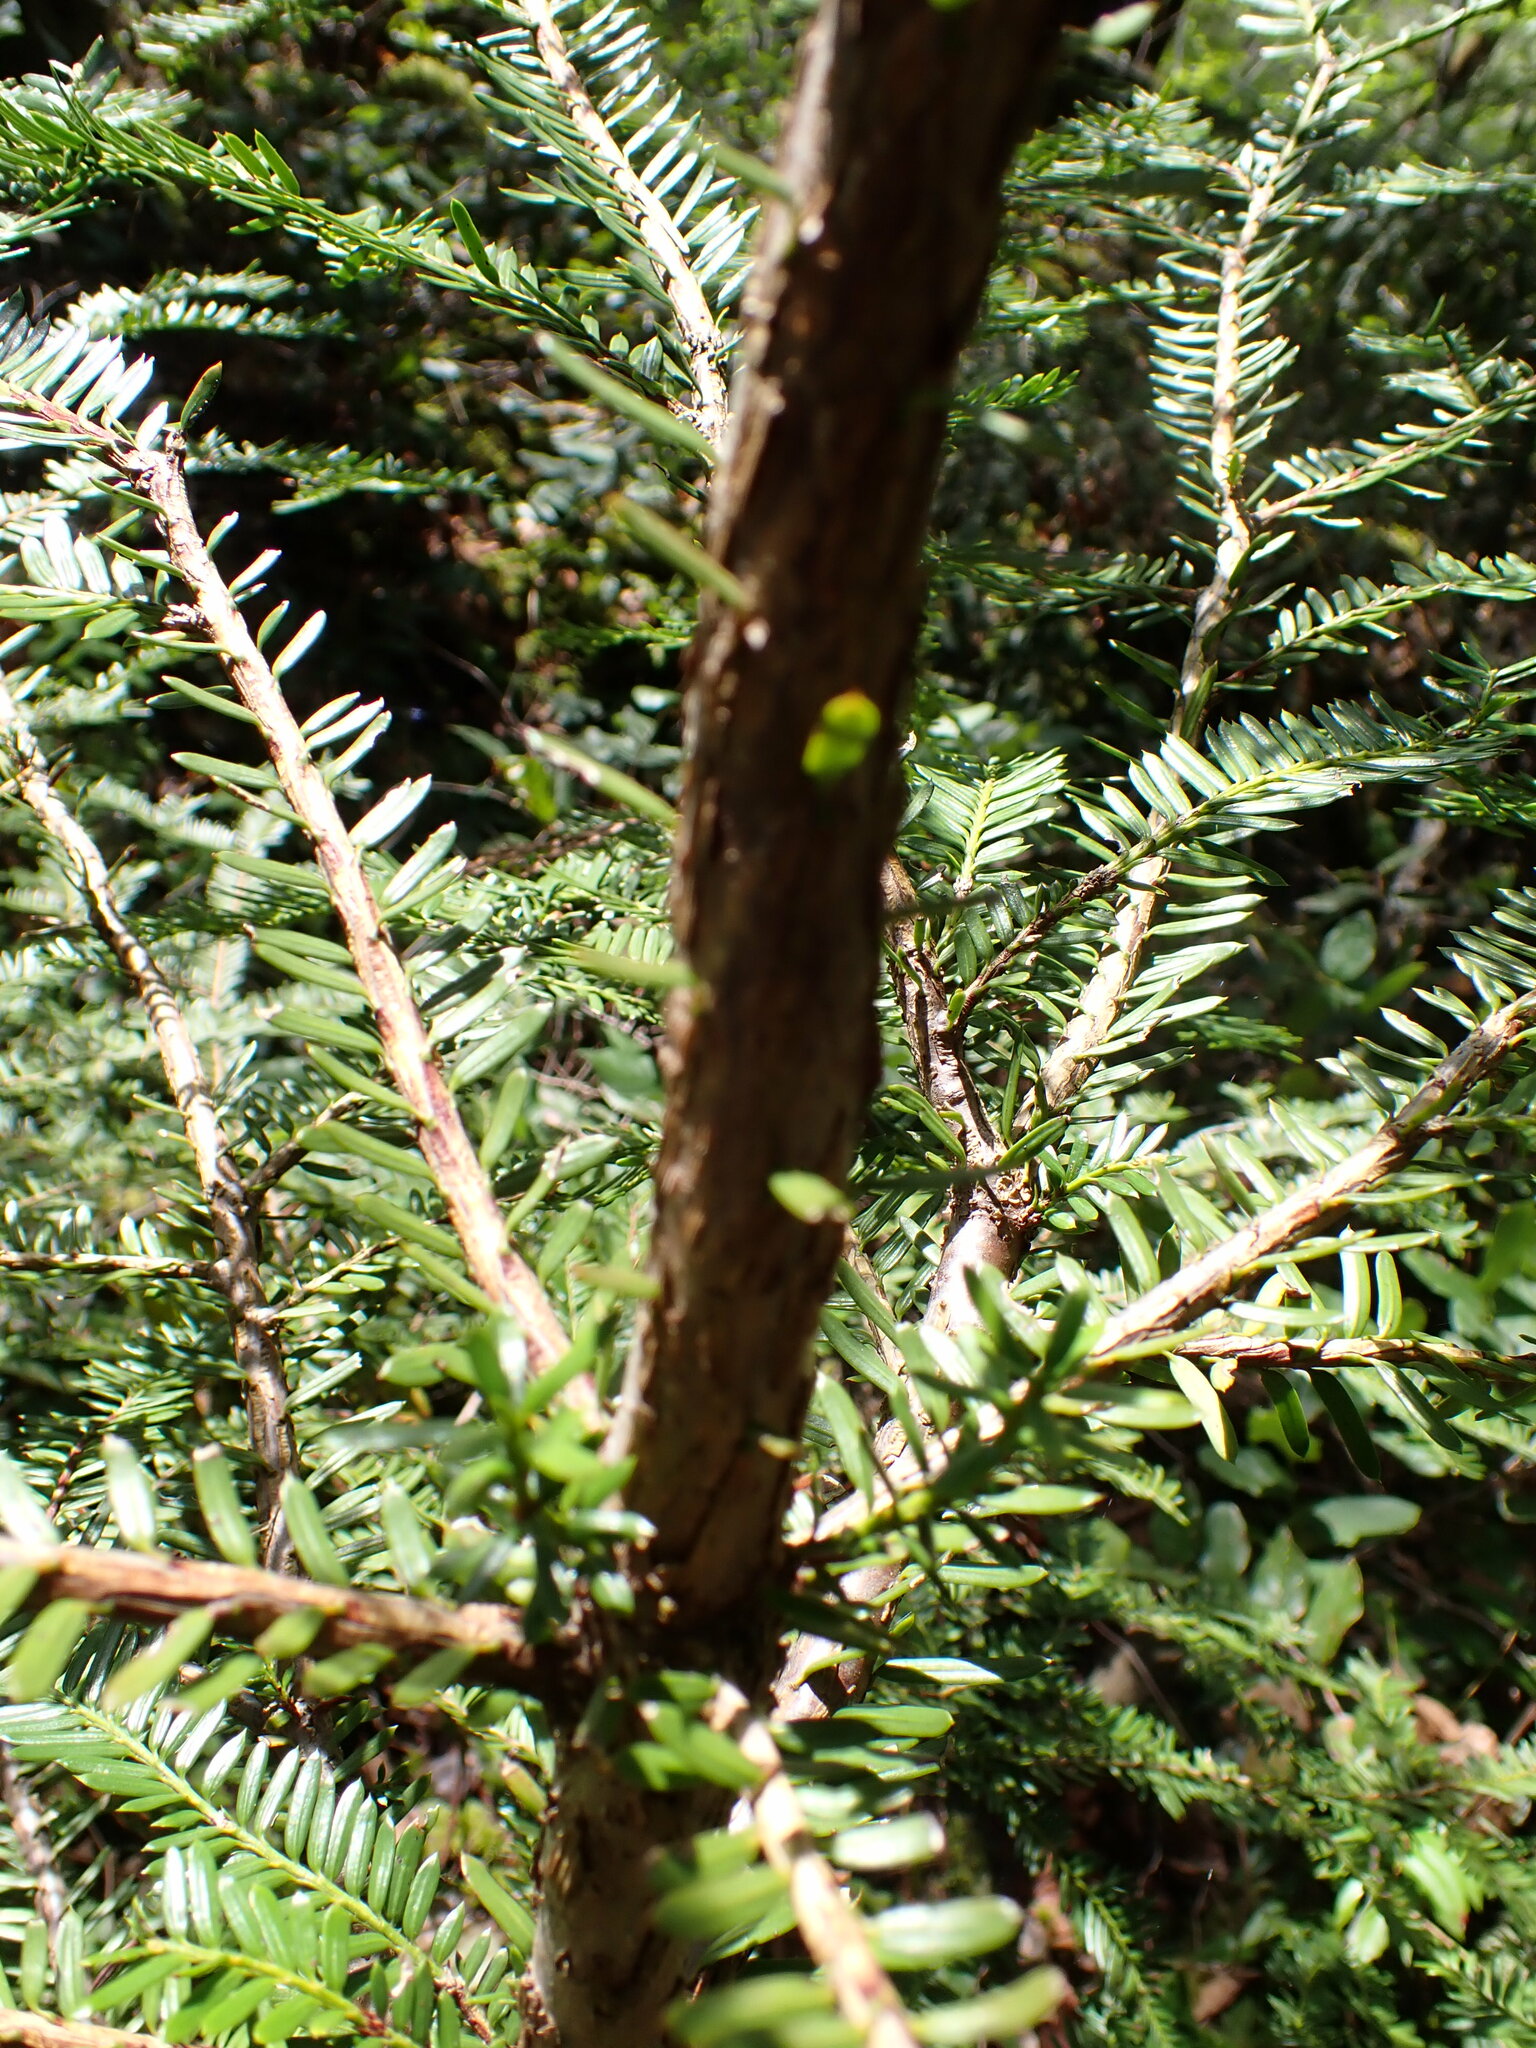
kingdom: Plantae
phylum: Tracheophyta
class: Pinopsida
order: Pinales
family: Taxaceae
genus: Taxus
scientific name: Taxus brevifolia
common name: Pacific yew
